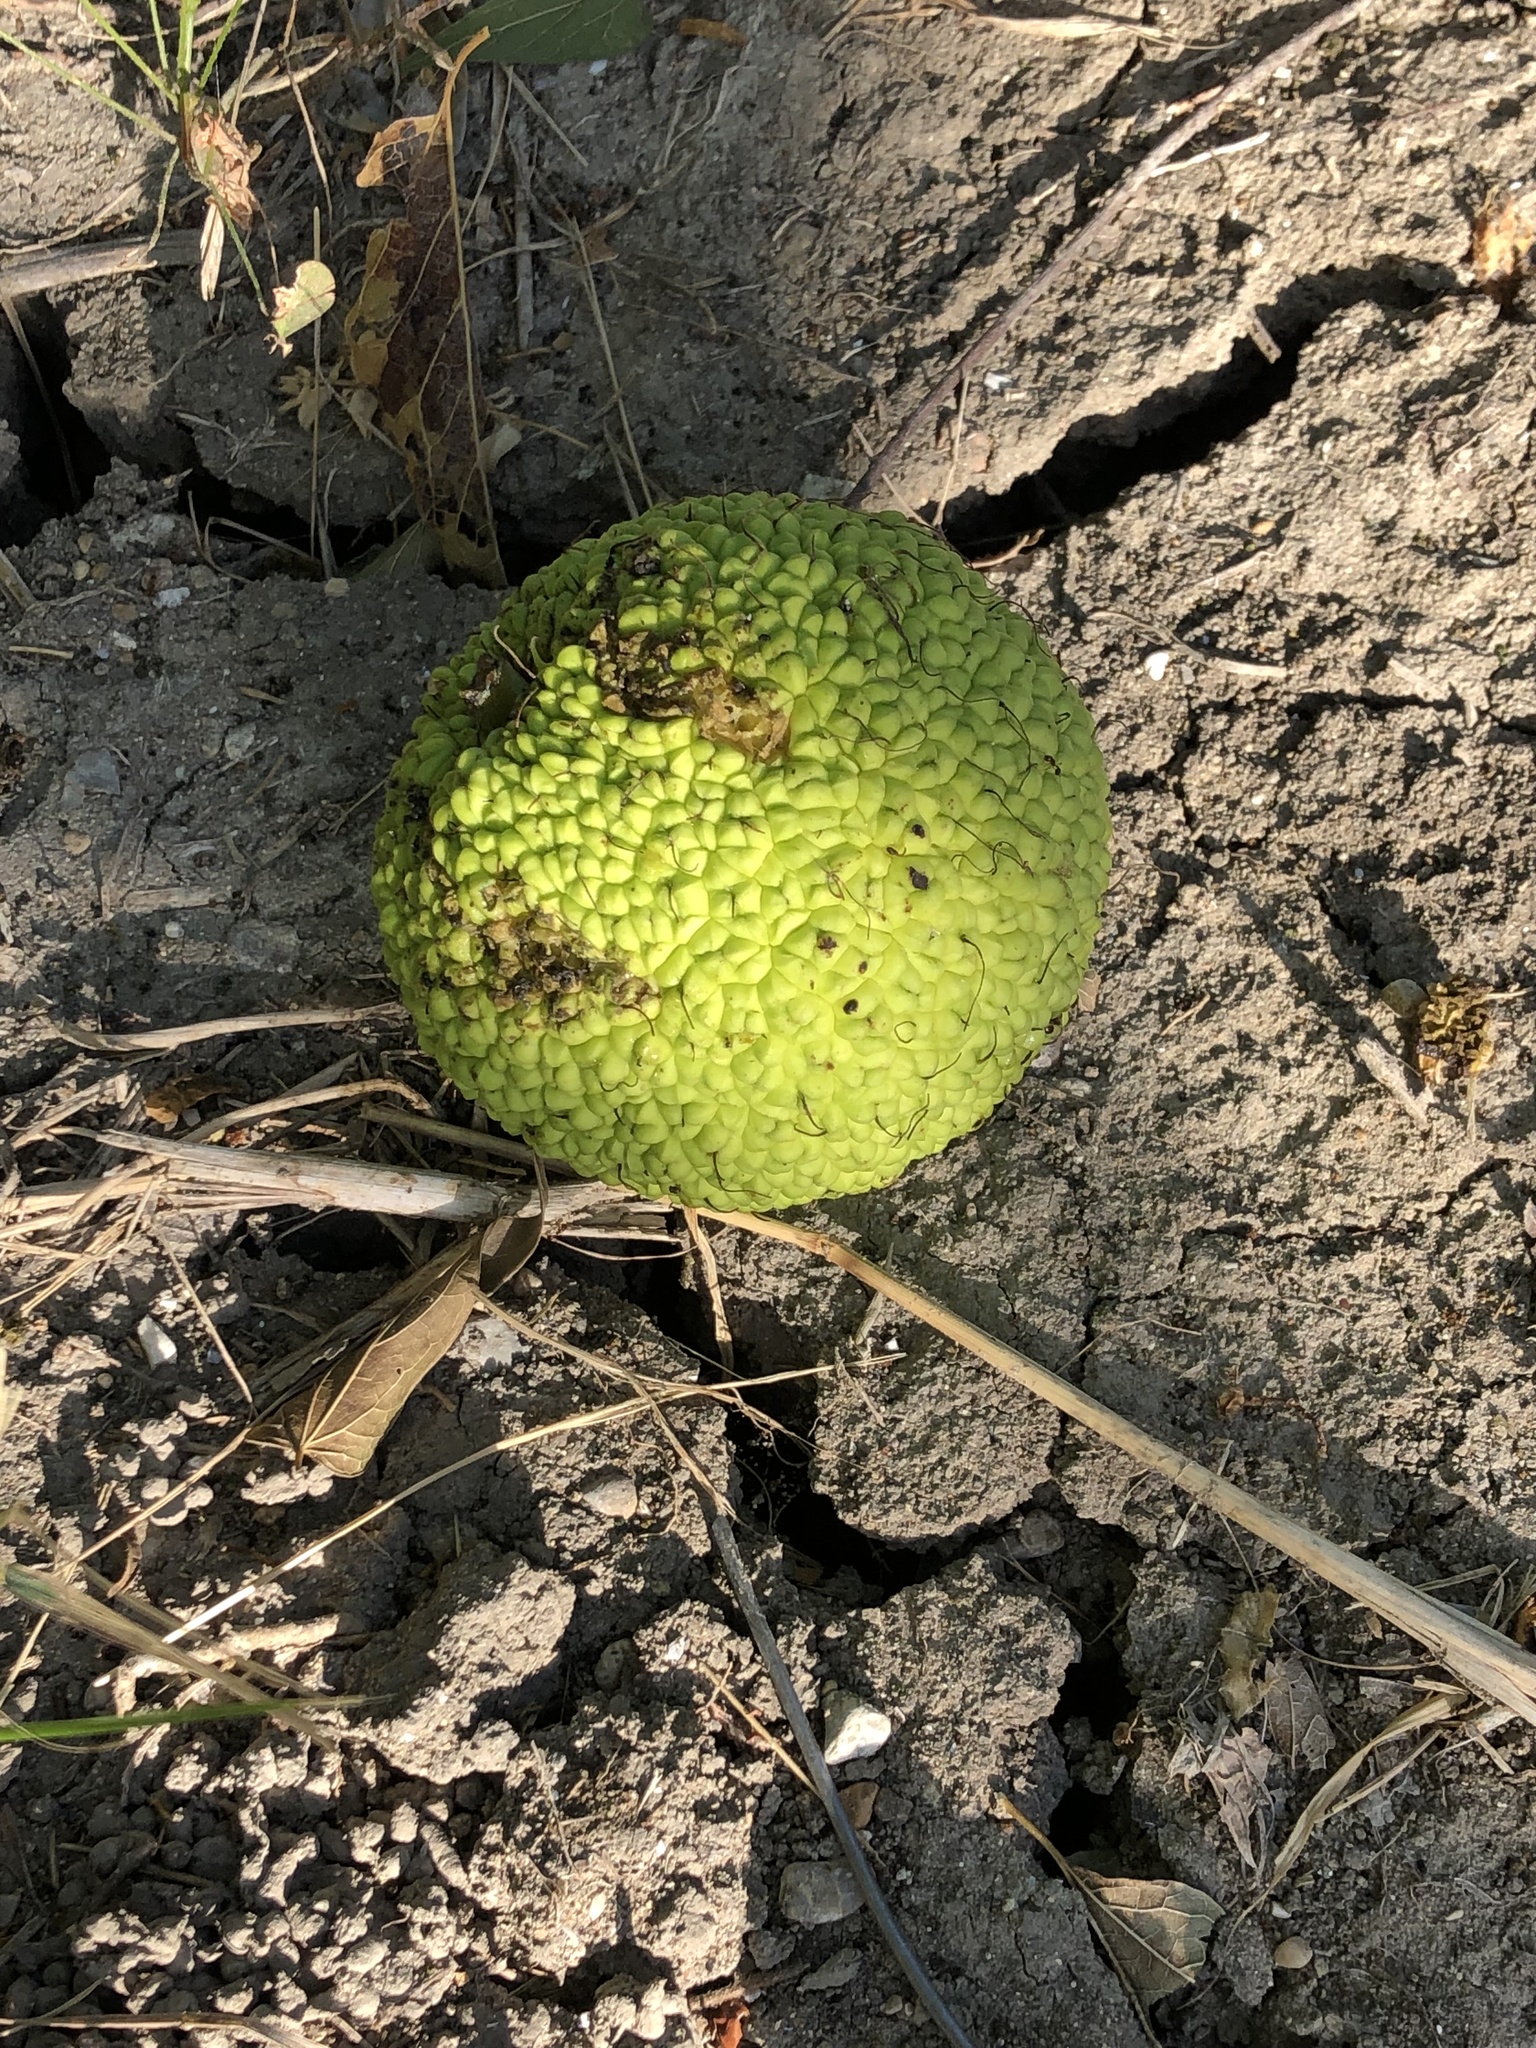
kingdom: Plantae
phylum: Tracheophyta
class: Magnoliopsida
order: Rosales
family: Moraceae
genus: Maclura
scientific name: Maclura pomifera
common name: Osage-orange
